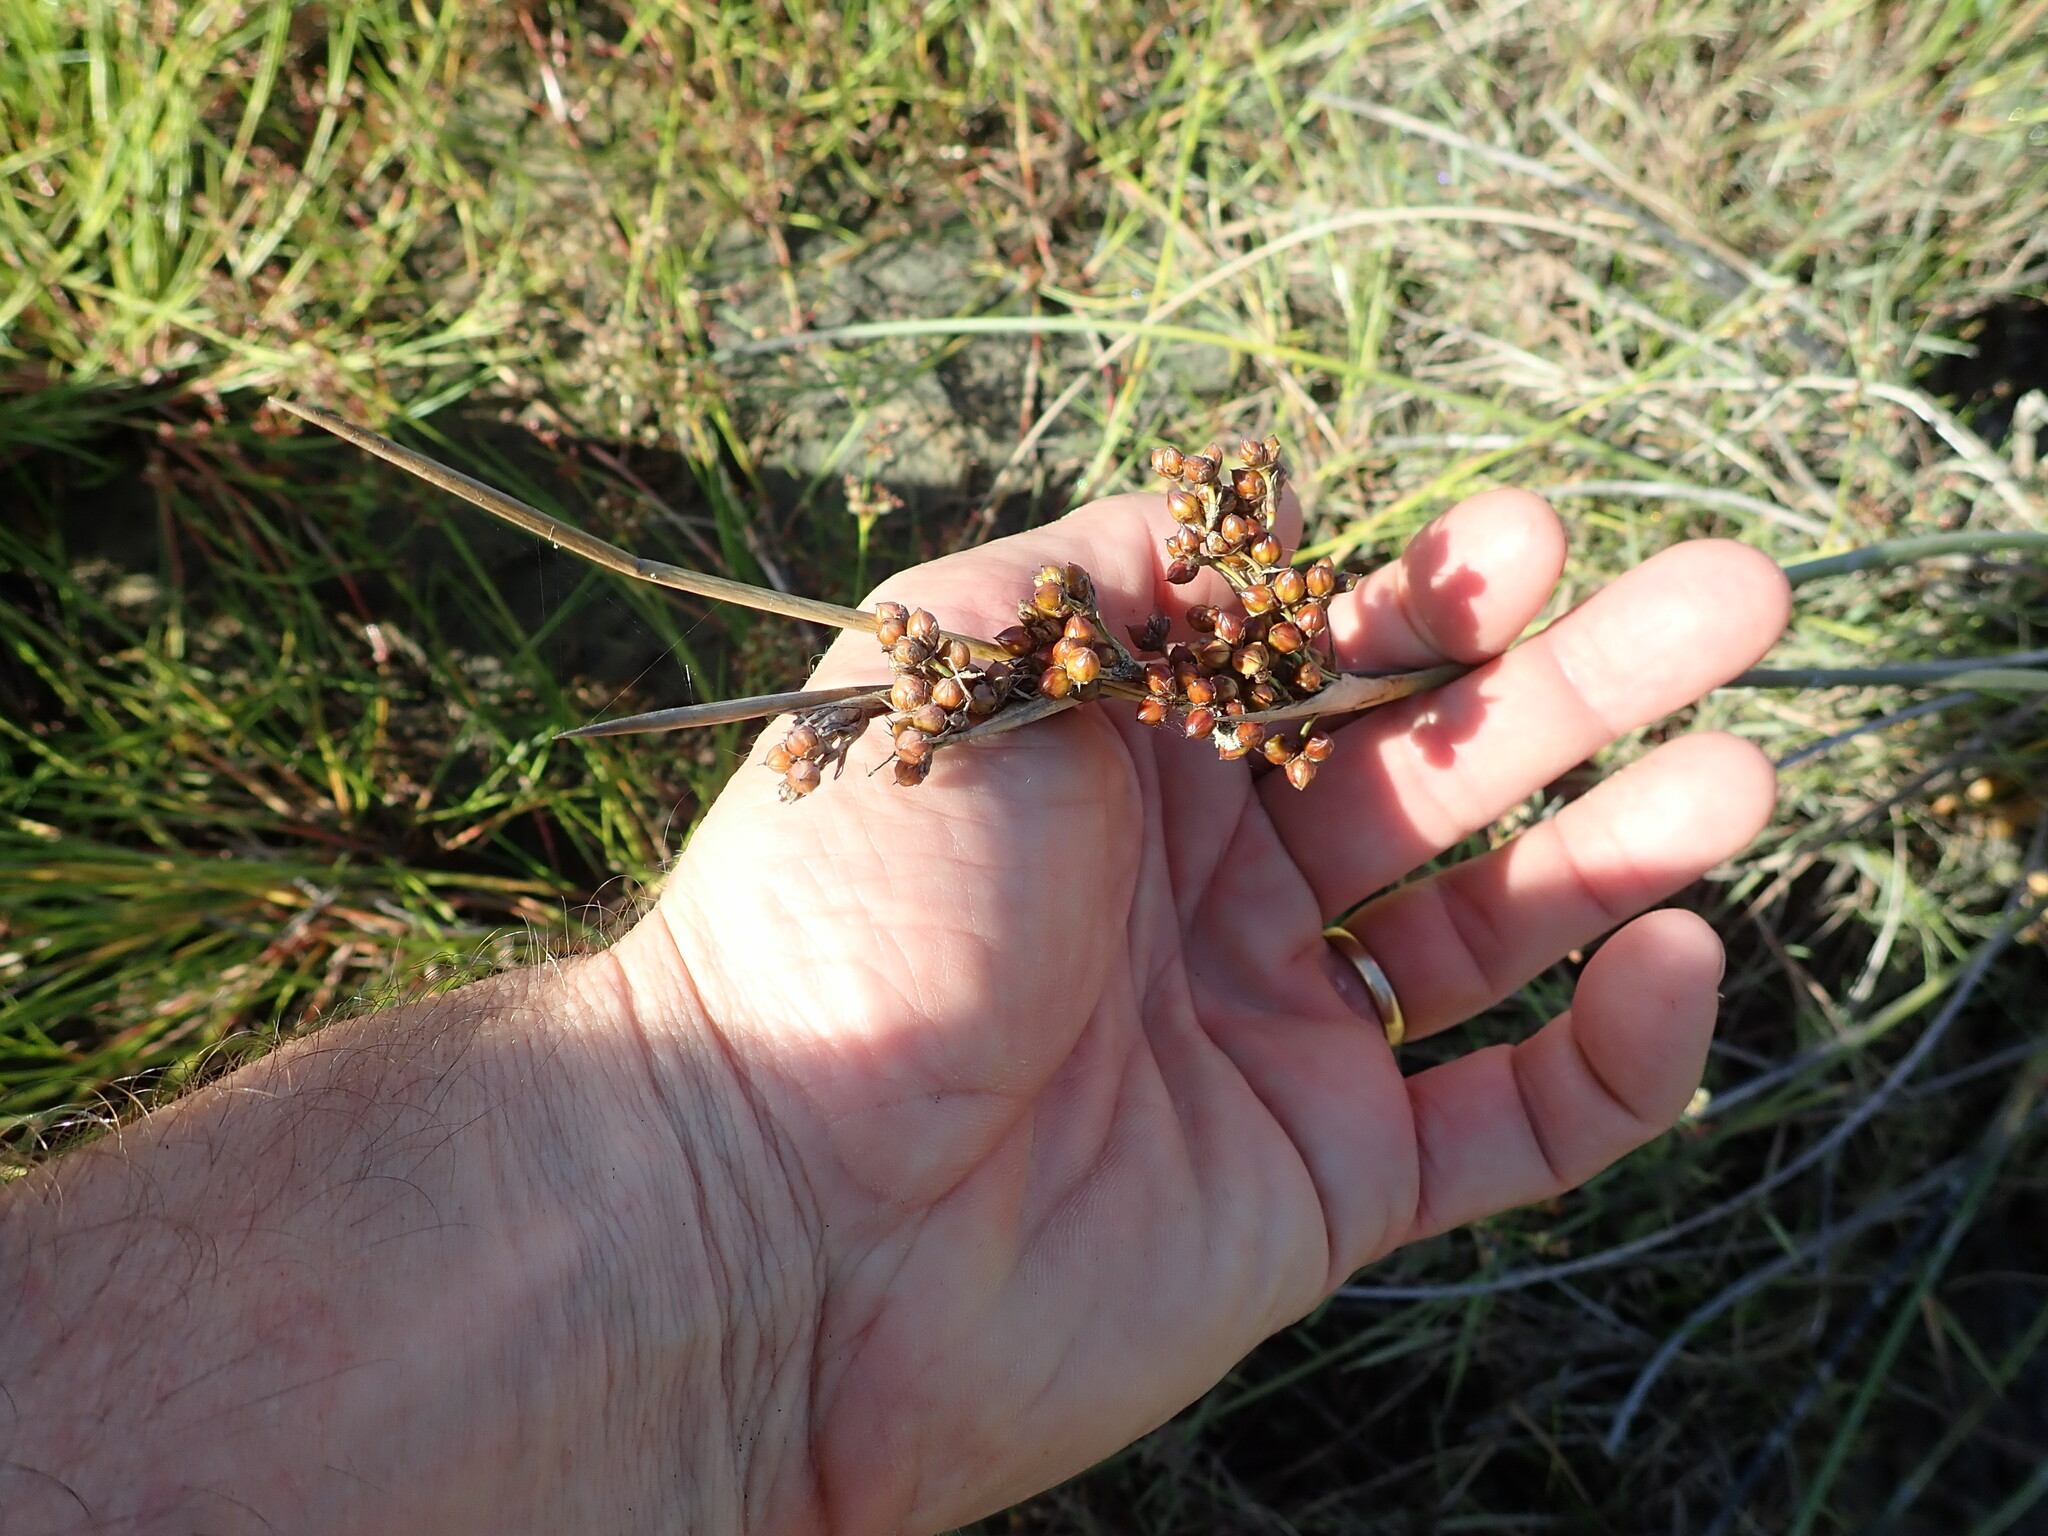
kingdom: Plantae
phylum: Tracheophyta
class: Liliopsida
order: Poales
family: Juncaceae
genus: Juncus
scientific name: Juncus acutus
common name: Sharp rush
